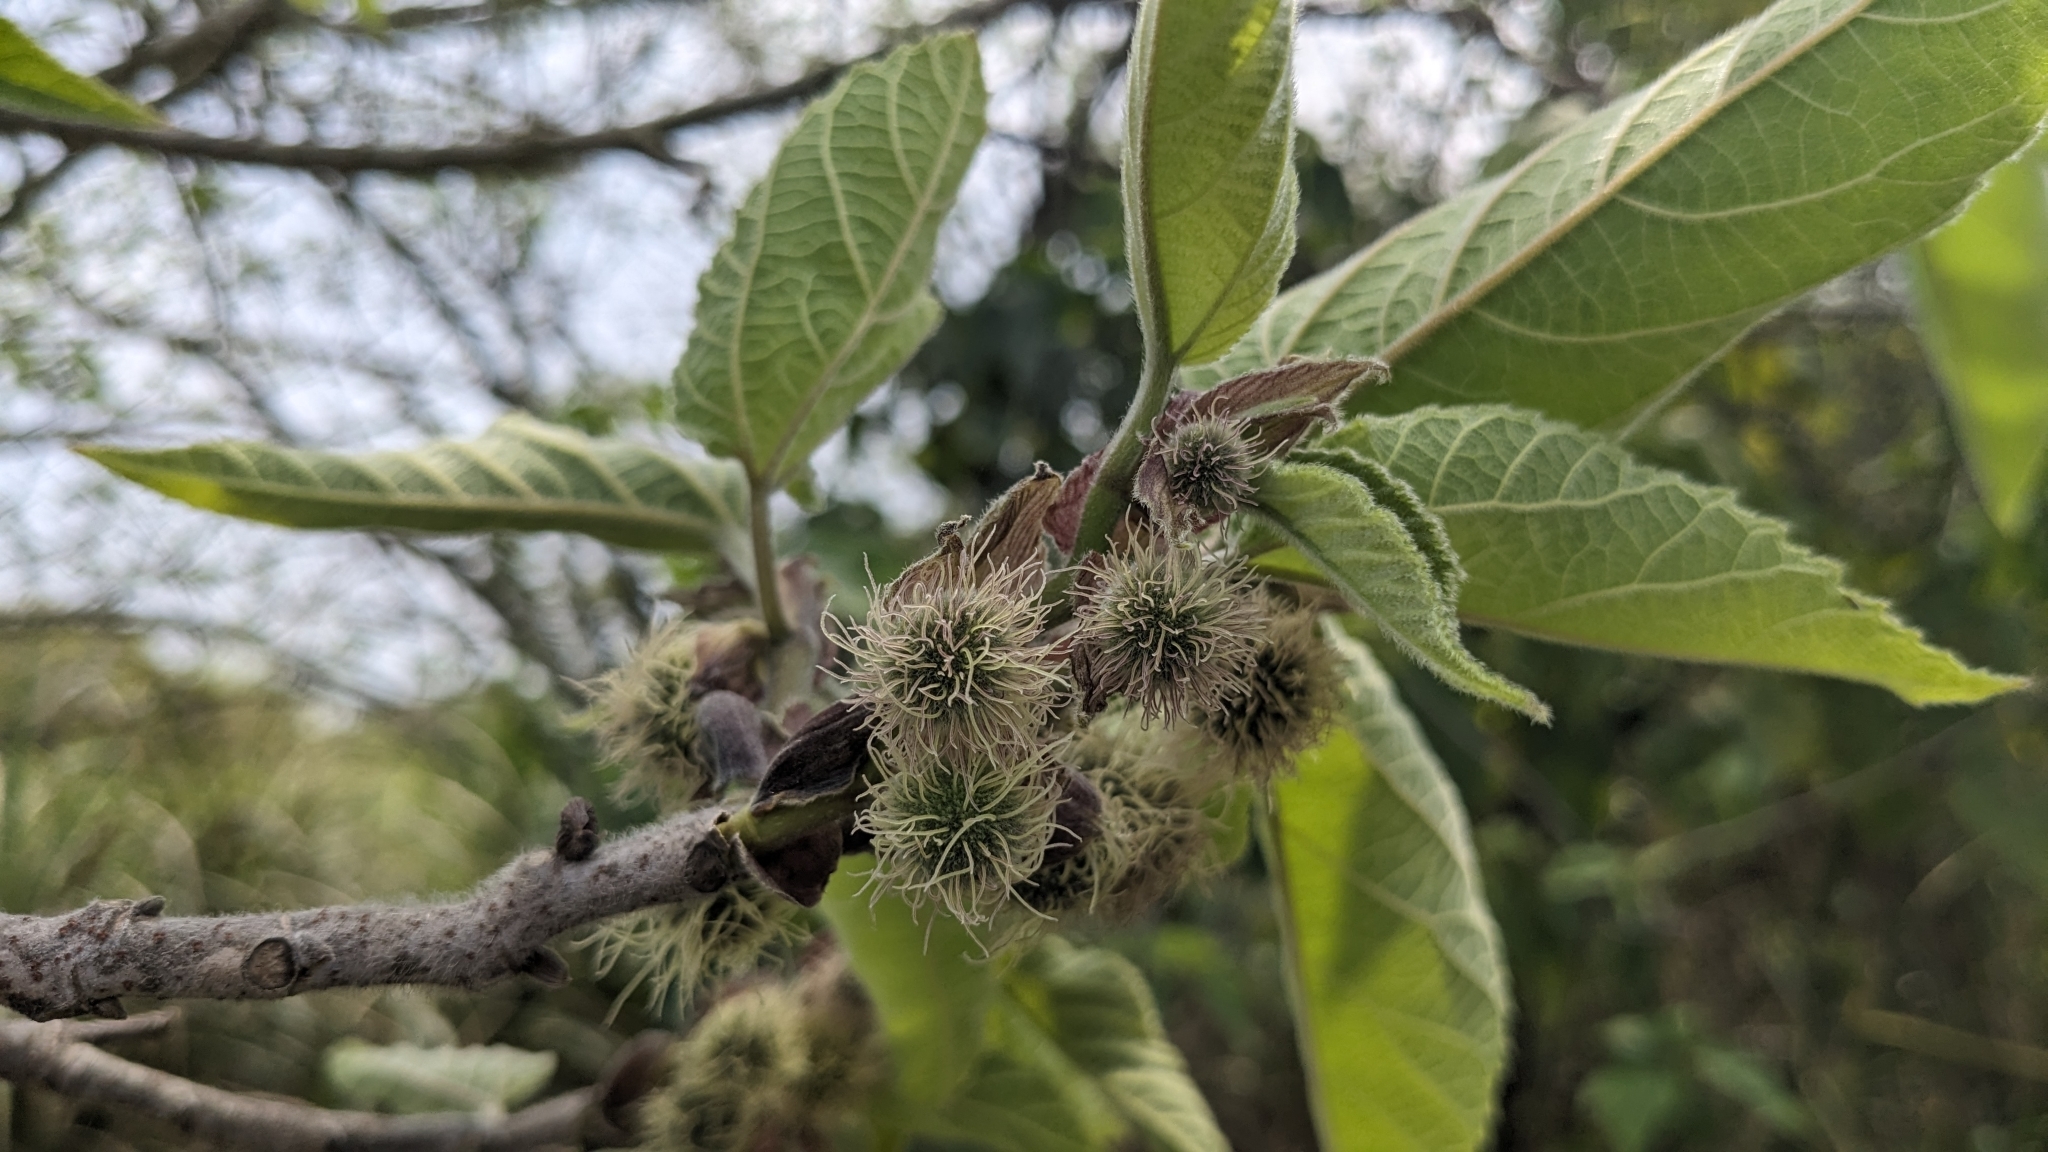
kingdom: Plantae
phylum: Tracheophyta
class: Magnoliopsida
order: Rosales
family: Moraceae
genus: Broussonetia
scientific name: Broussonetia papyrifera
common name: Paper mulberry
